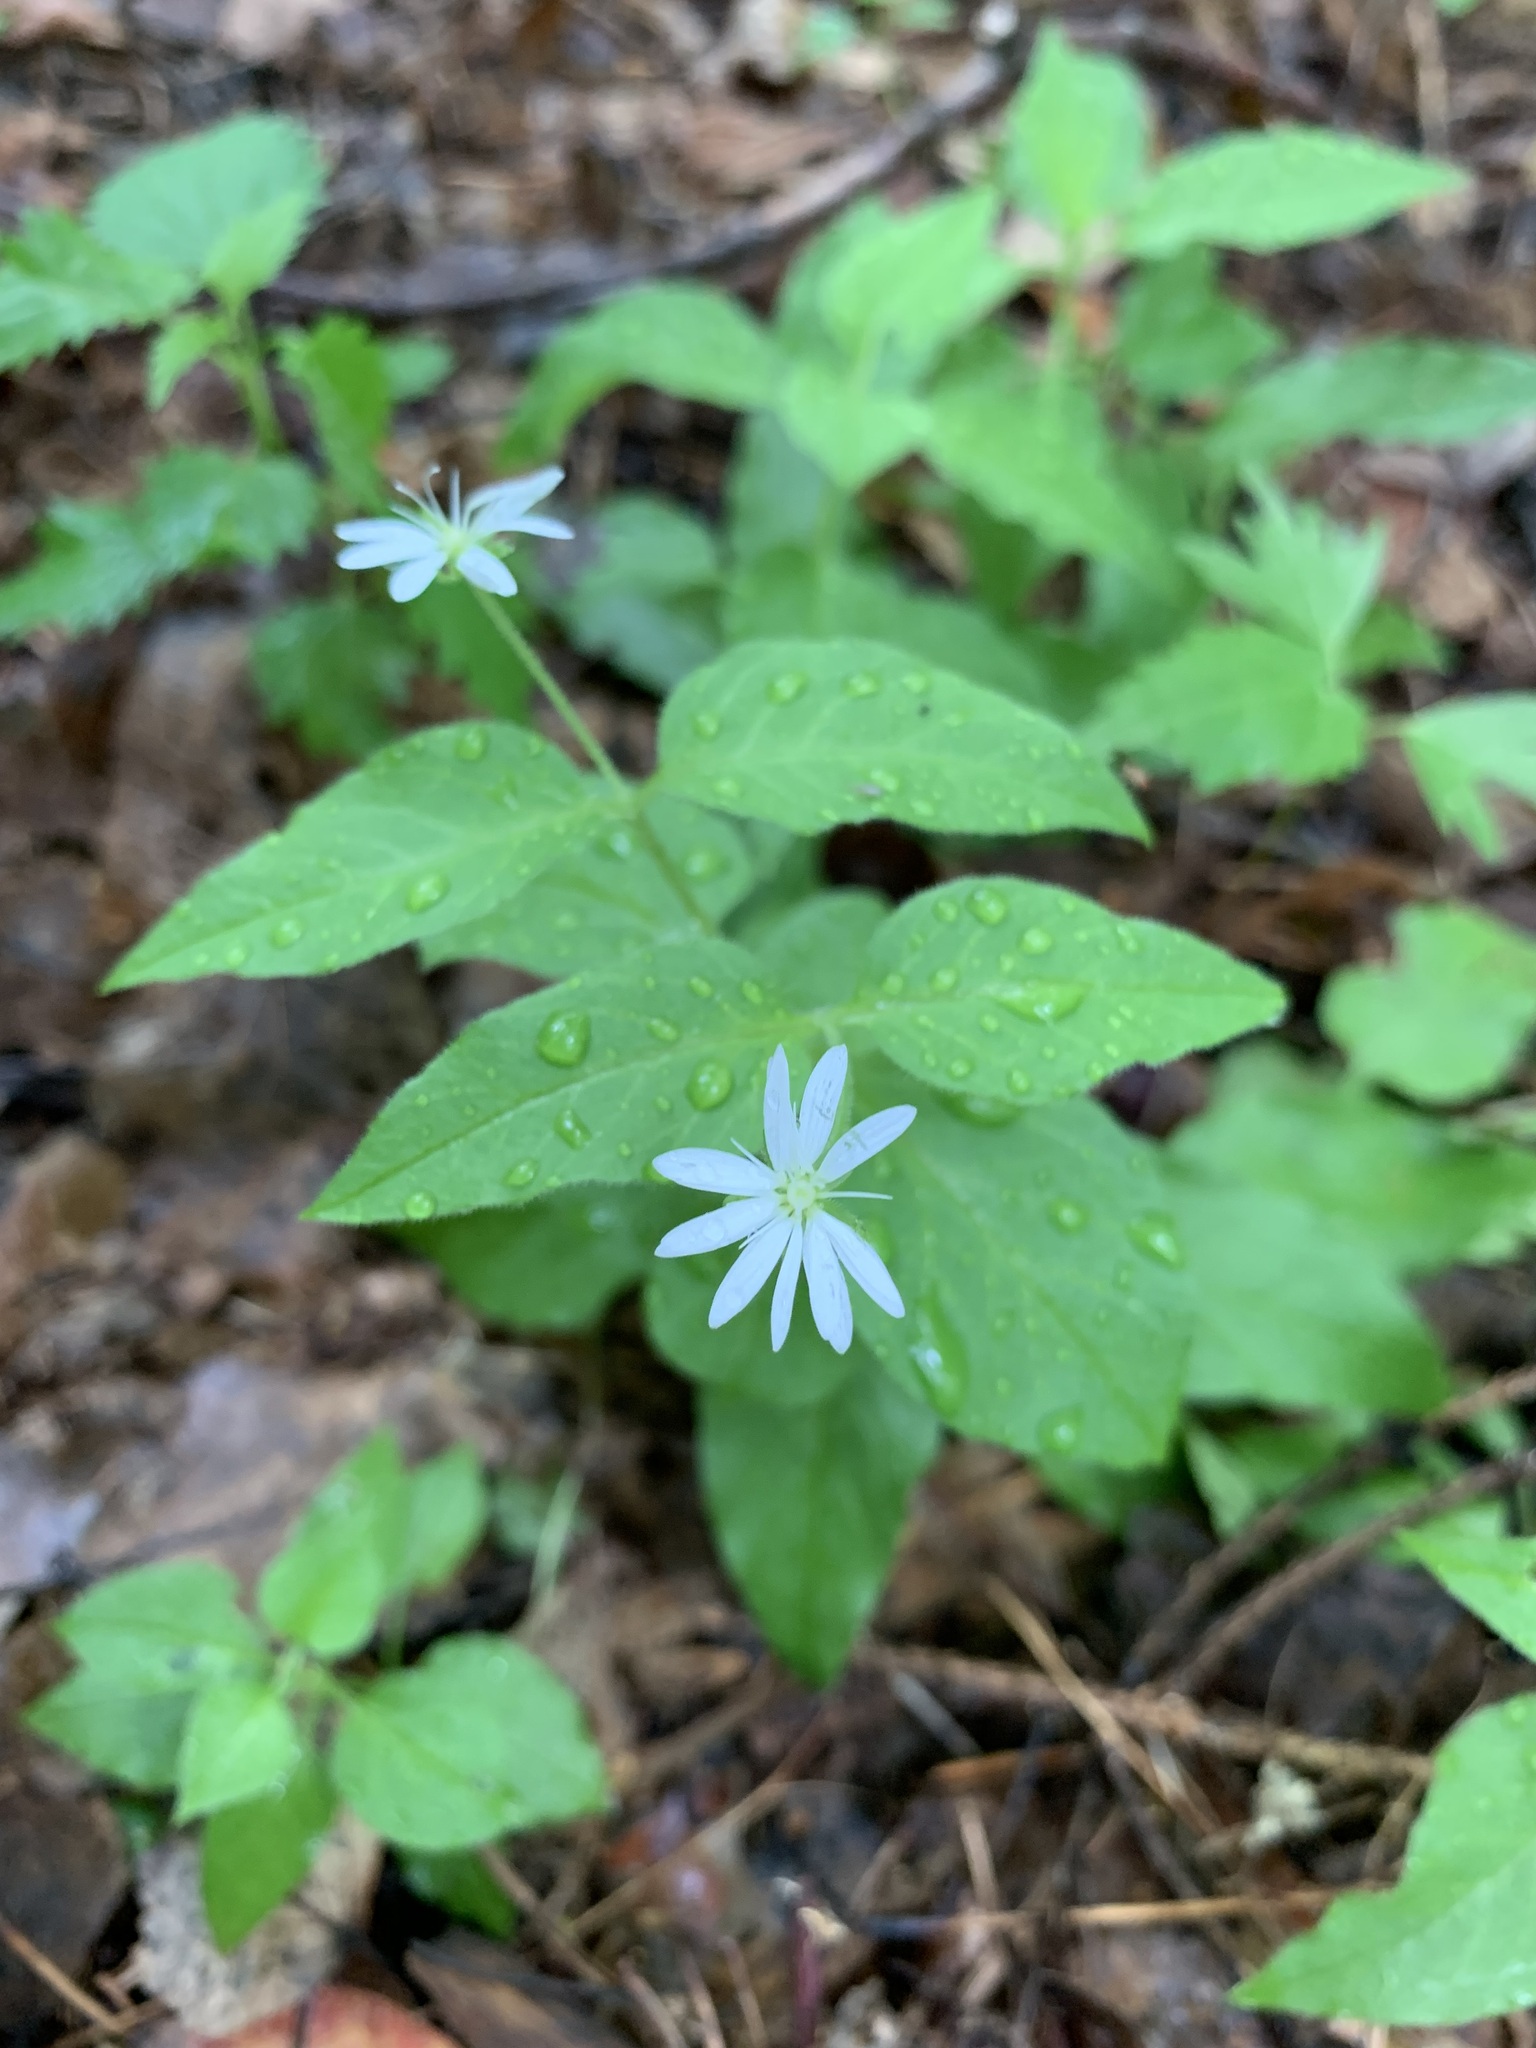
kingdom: Plantae
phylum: Tracheophyta
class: Magnoliopsida
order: Caryophyllales
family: Caryophyllaceae
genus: Stellaria
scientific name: Stellaria bungeana
